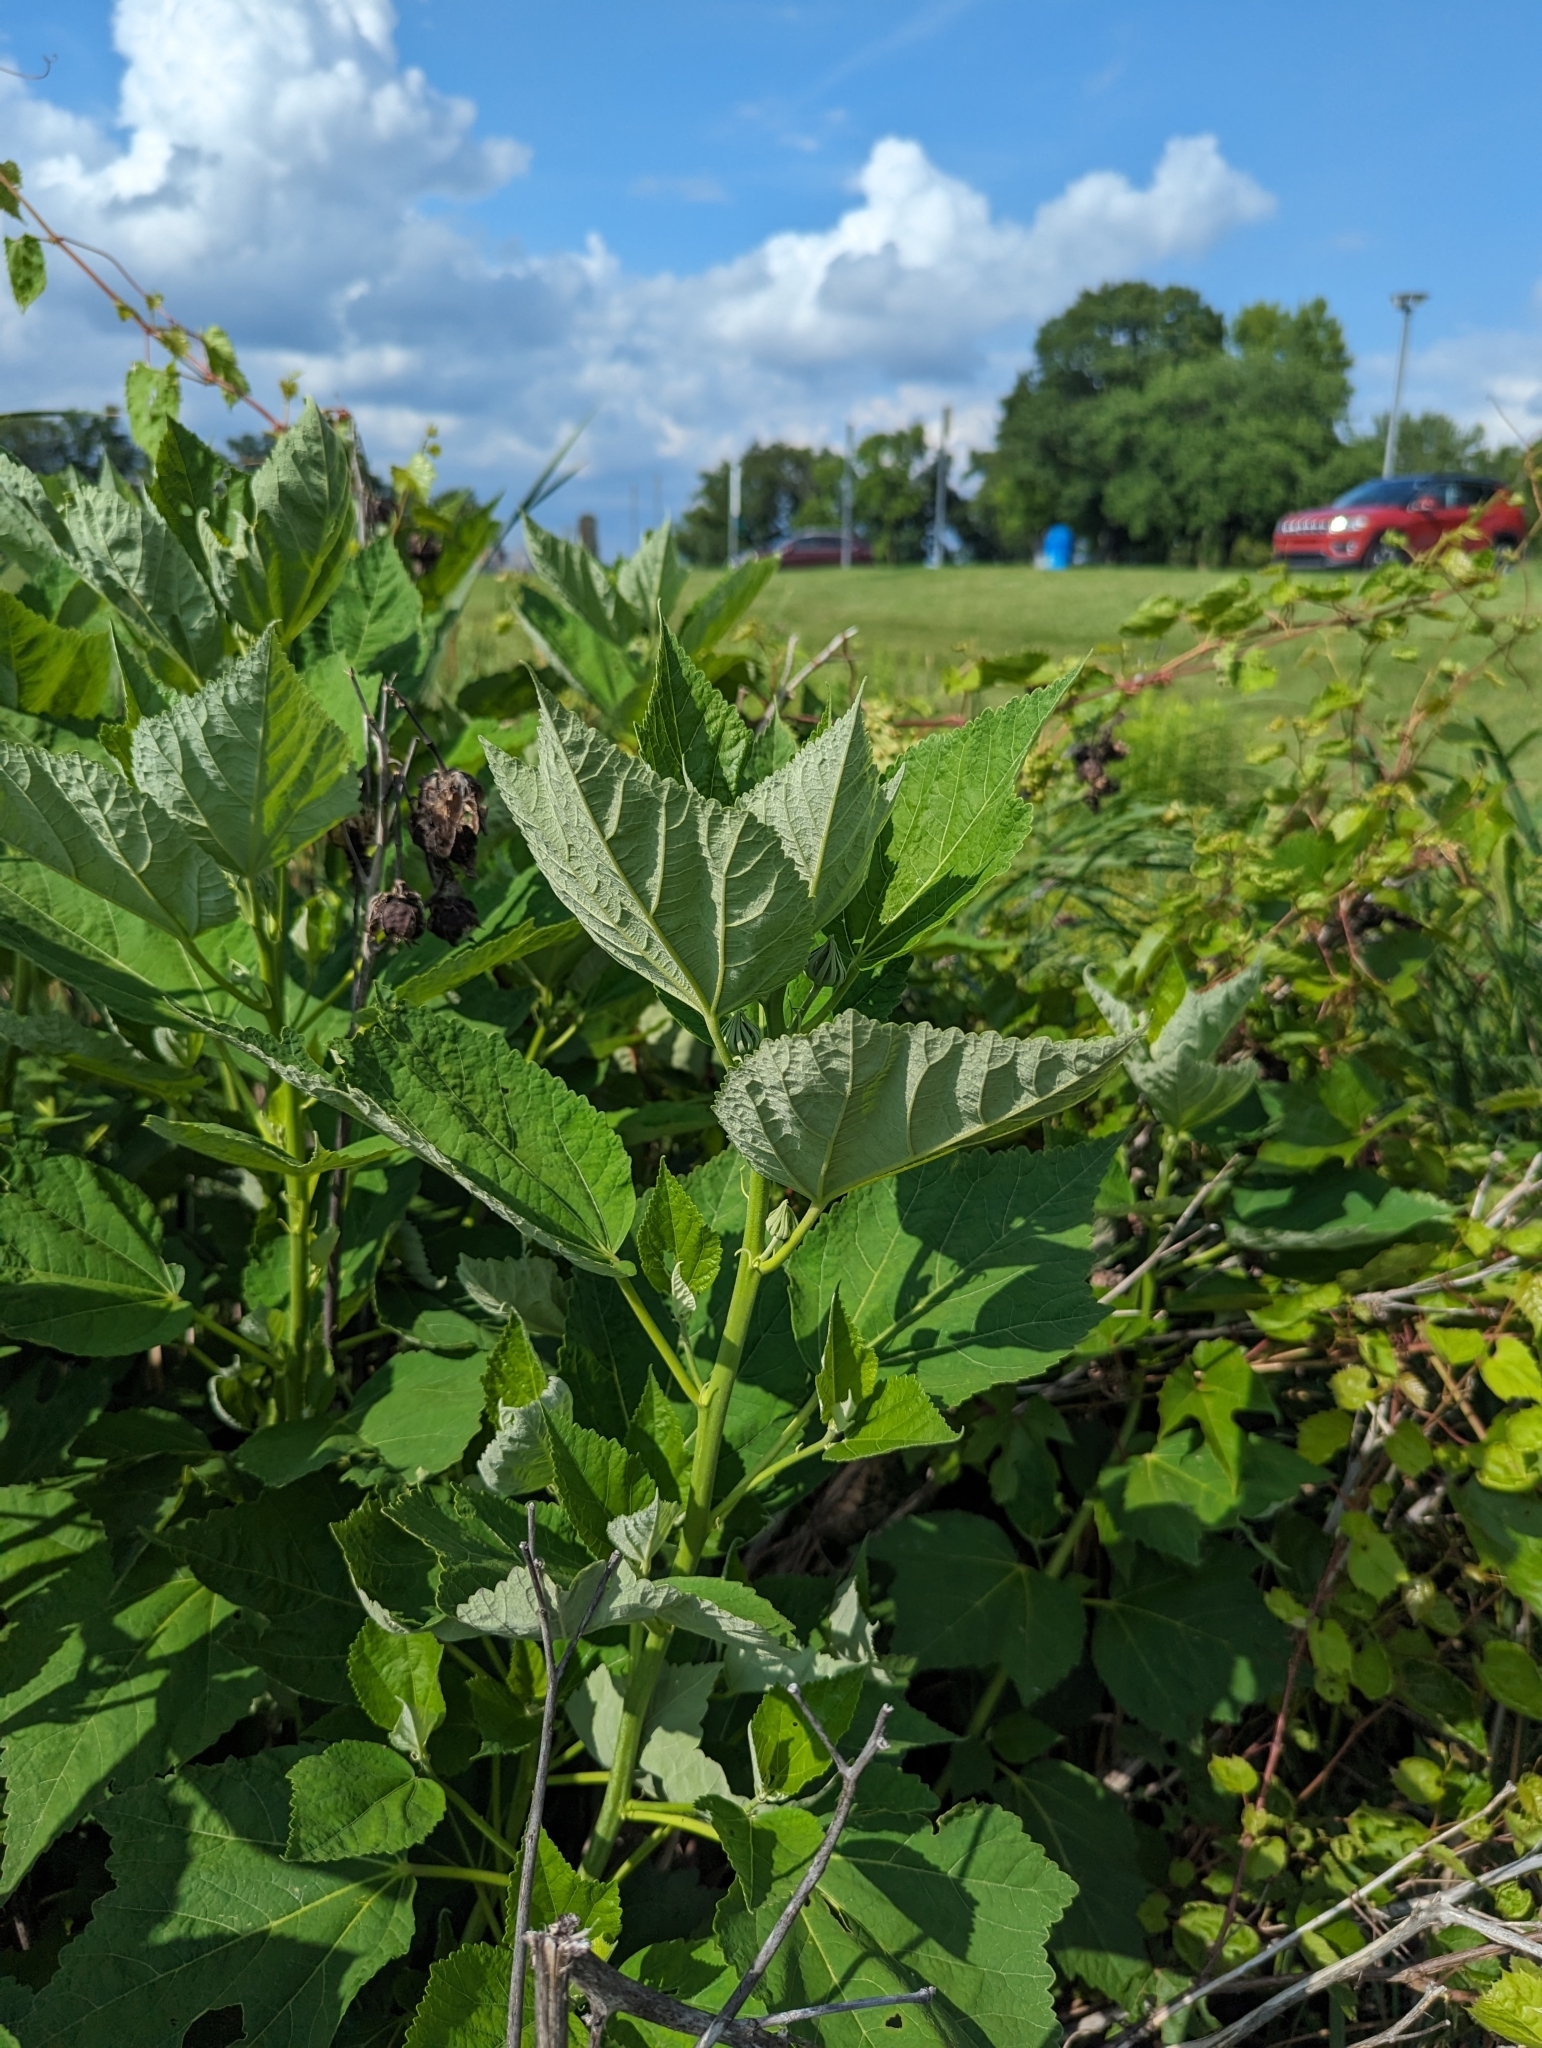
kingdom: Plantae
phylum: Tracheophyta
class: Magnoliopsida
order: Malvales
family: Malvaceae
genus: Hibiscus
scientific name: Hibiscus moscheutos
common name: Common rose-mallow
